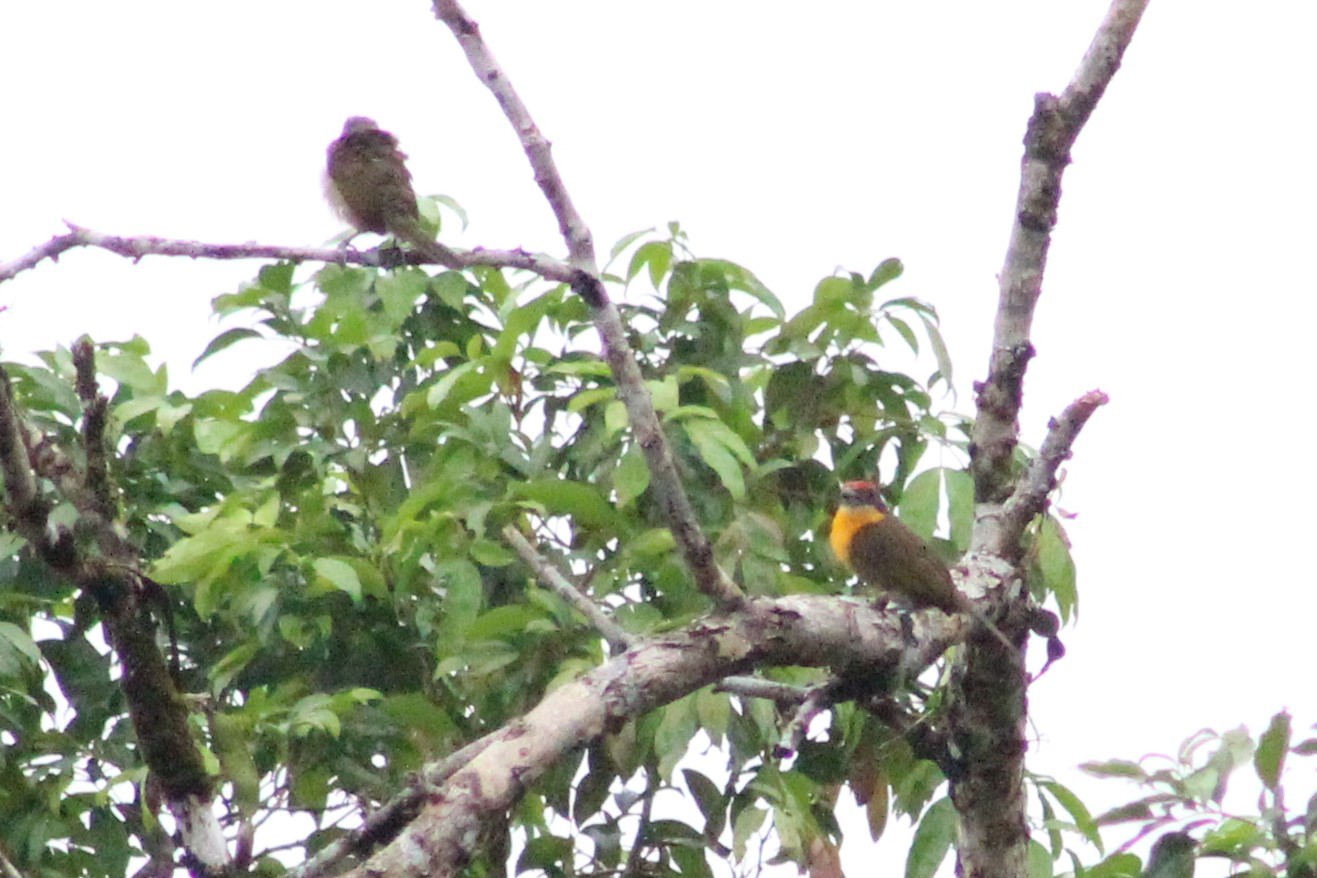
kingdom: Animalia
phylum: Chordata
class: Aves
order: Piciformes
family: Capitonidae
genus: Capito
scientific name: Capito aurovirens
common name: Scarlet-crowned barbet
